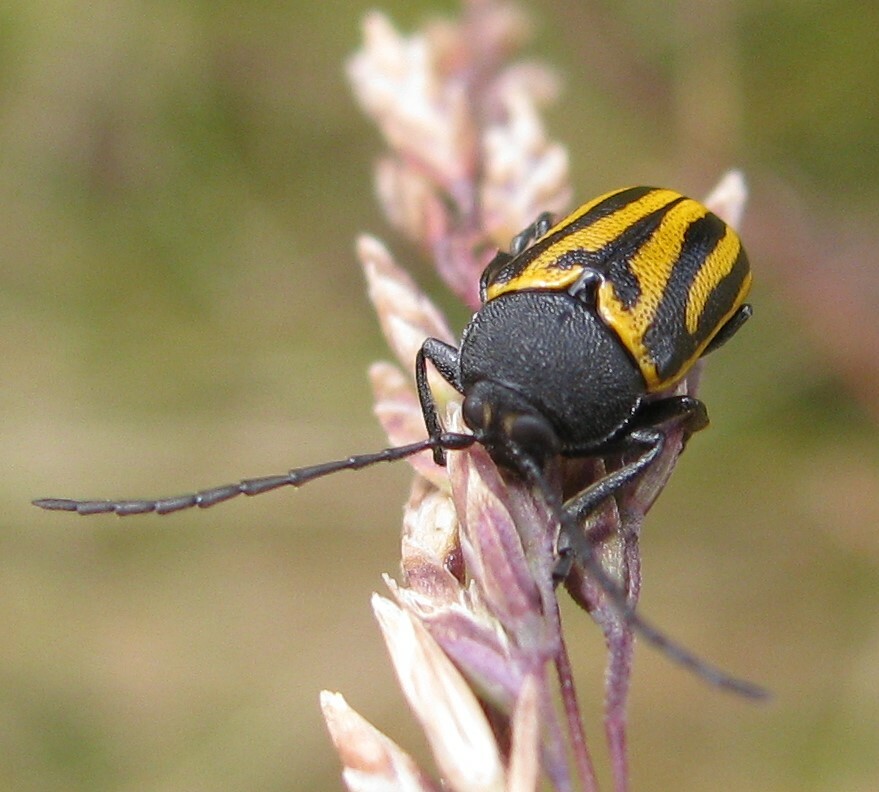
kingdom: Animalia
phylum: Arthropoda
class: Insecta
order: Coleoptera
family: Chrysomelidae
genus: Cadmus
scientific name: Cadmus
